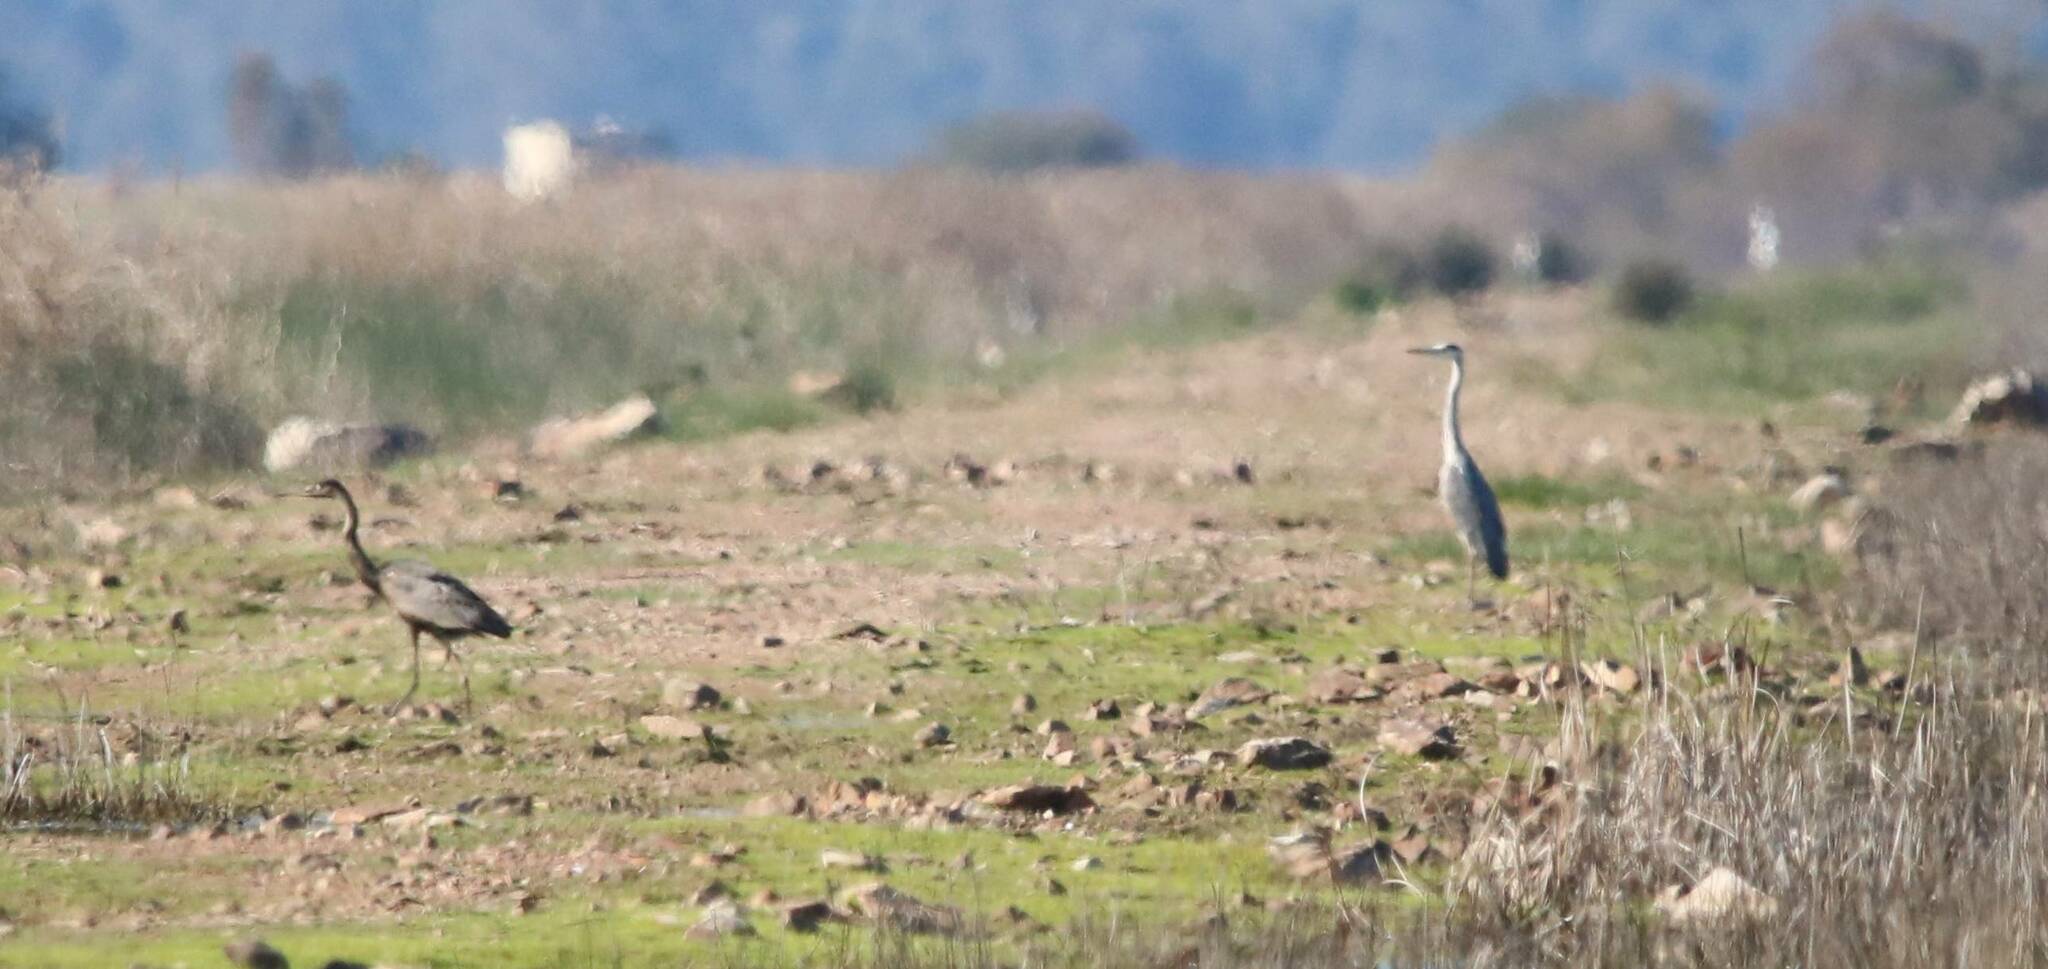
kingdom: Animalia
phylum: Chordata
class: Aves
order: Pelecaniformes
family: Ardeidae
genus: Ardea
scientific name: Ardea cinerea
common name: Grey heron
